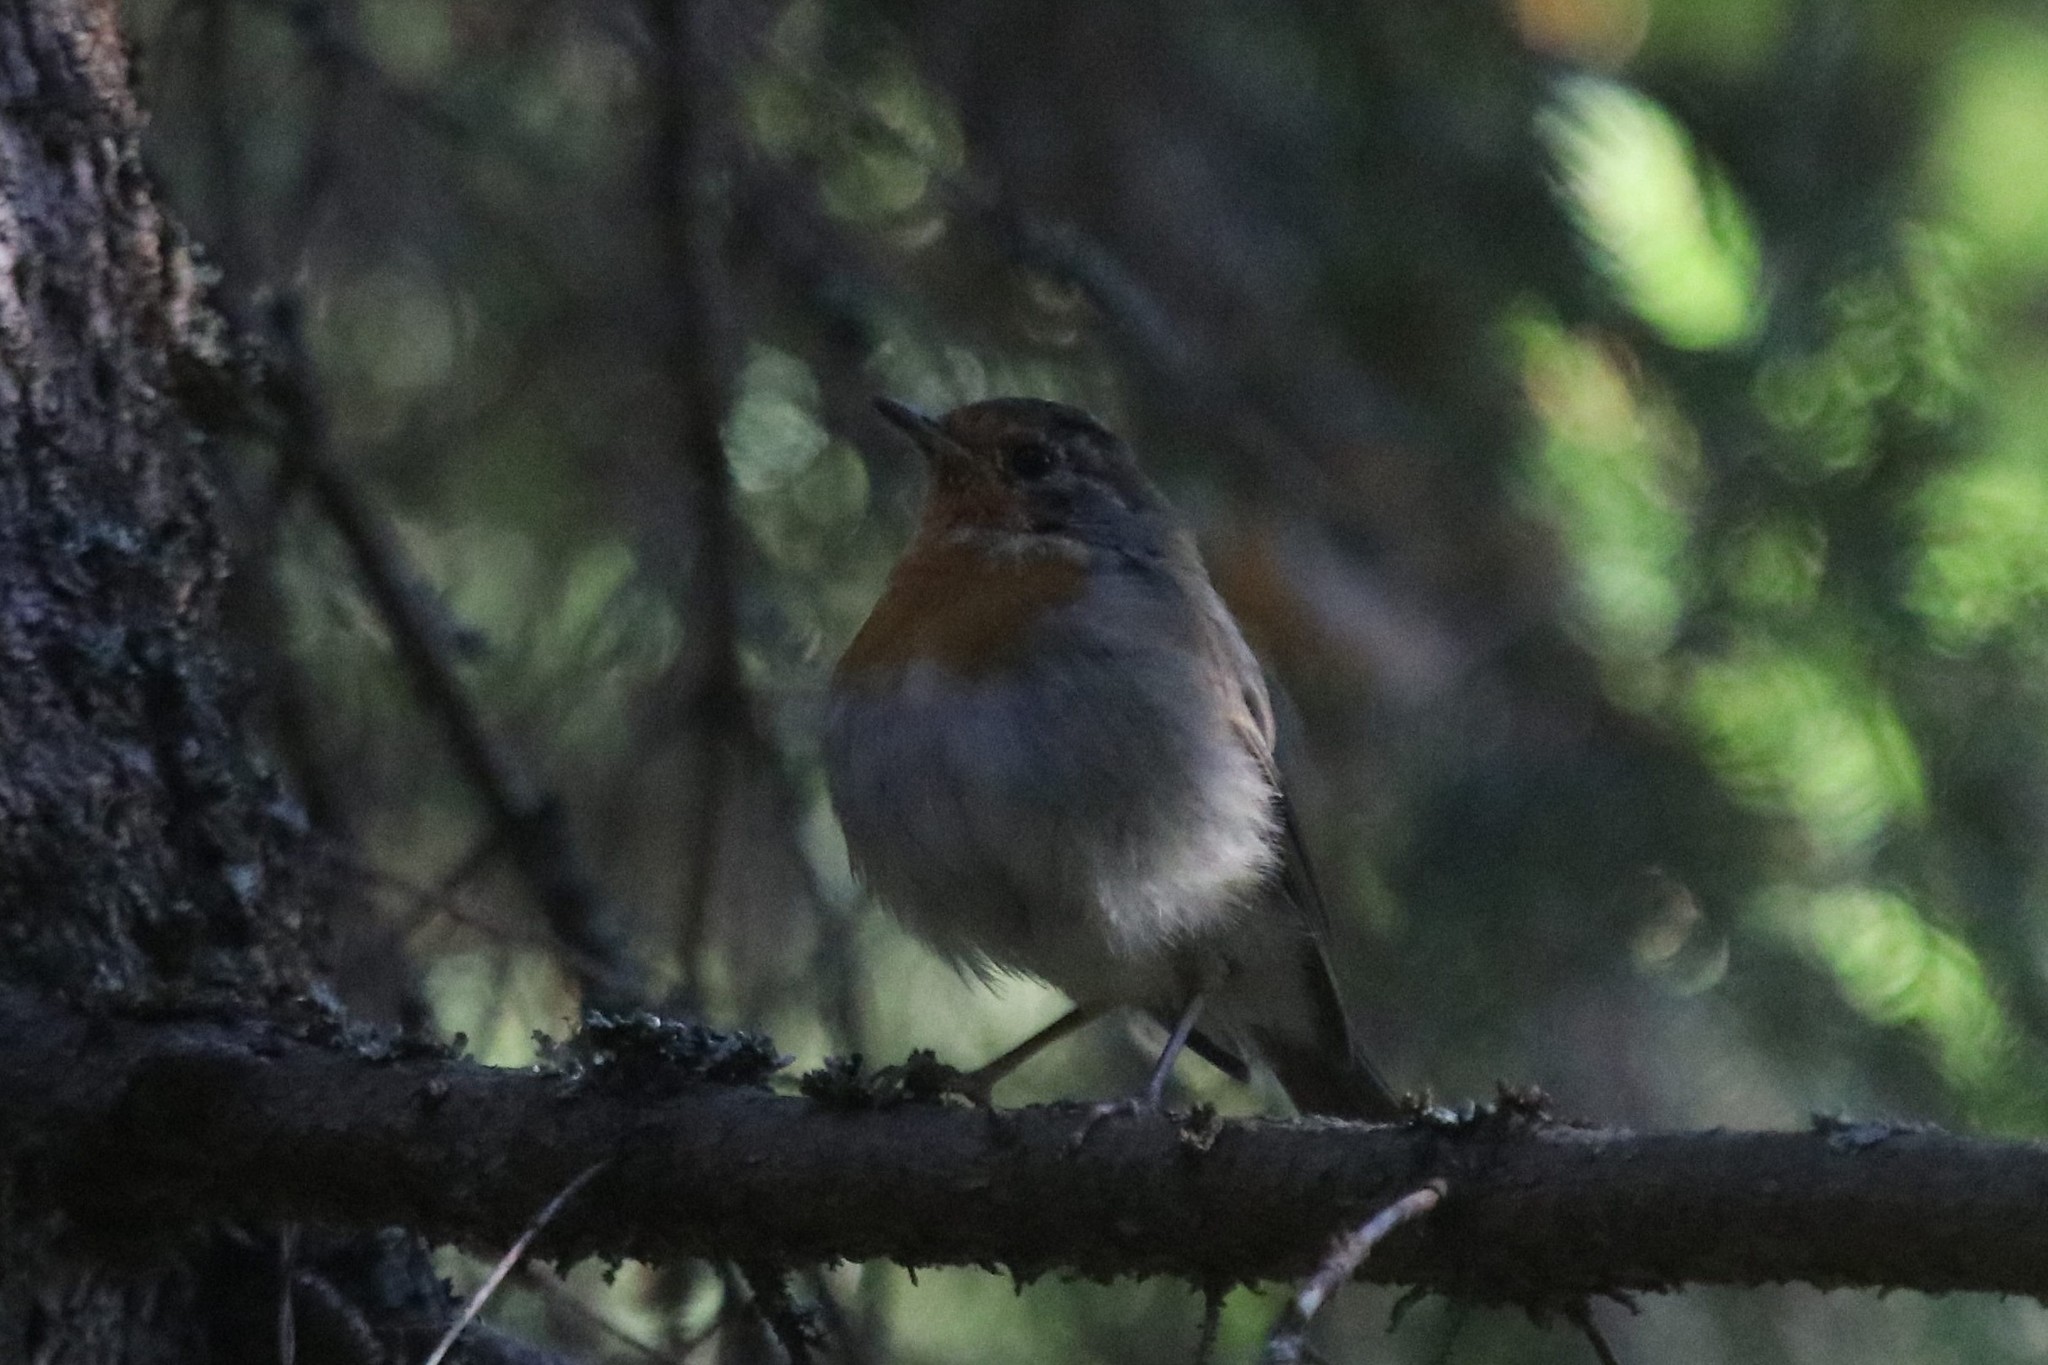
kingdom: Animalia
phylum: Chordata
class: Aves
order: Passeriformes
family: Muscicapidae
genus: Erithacus
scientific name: Erithacus rubecula
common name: European robin
